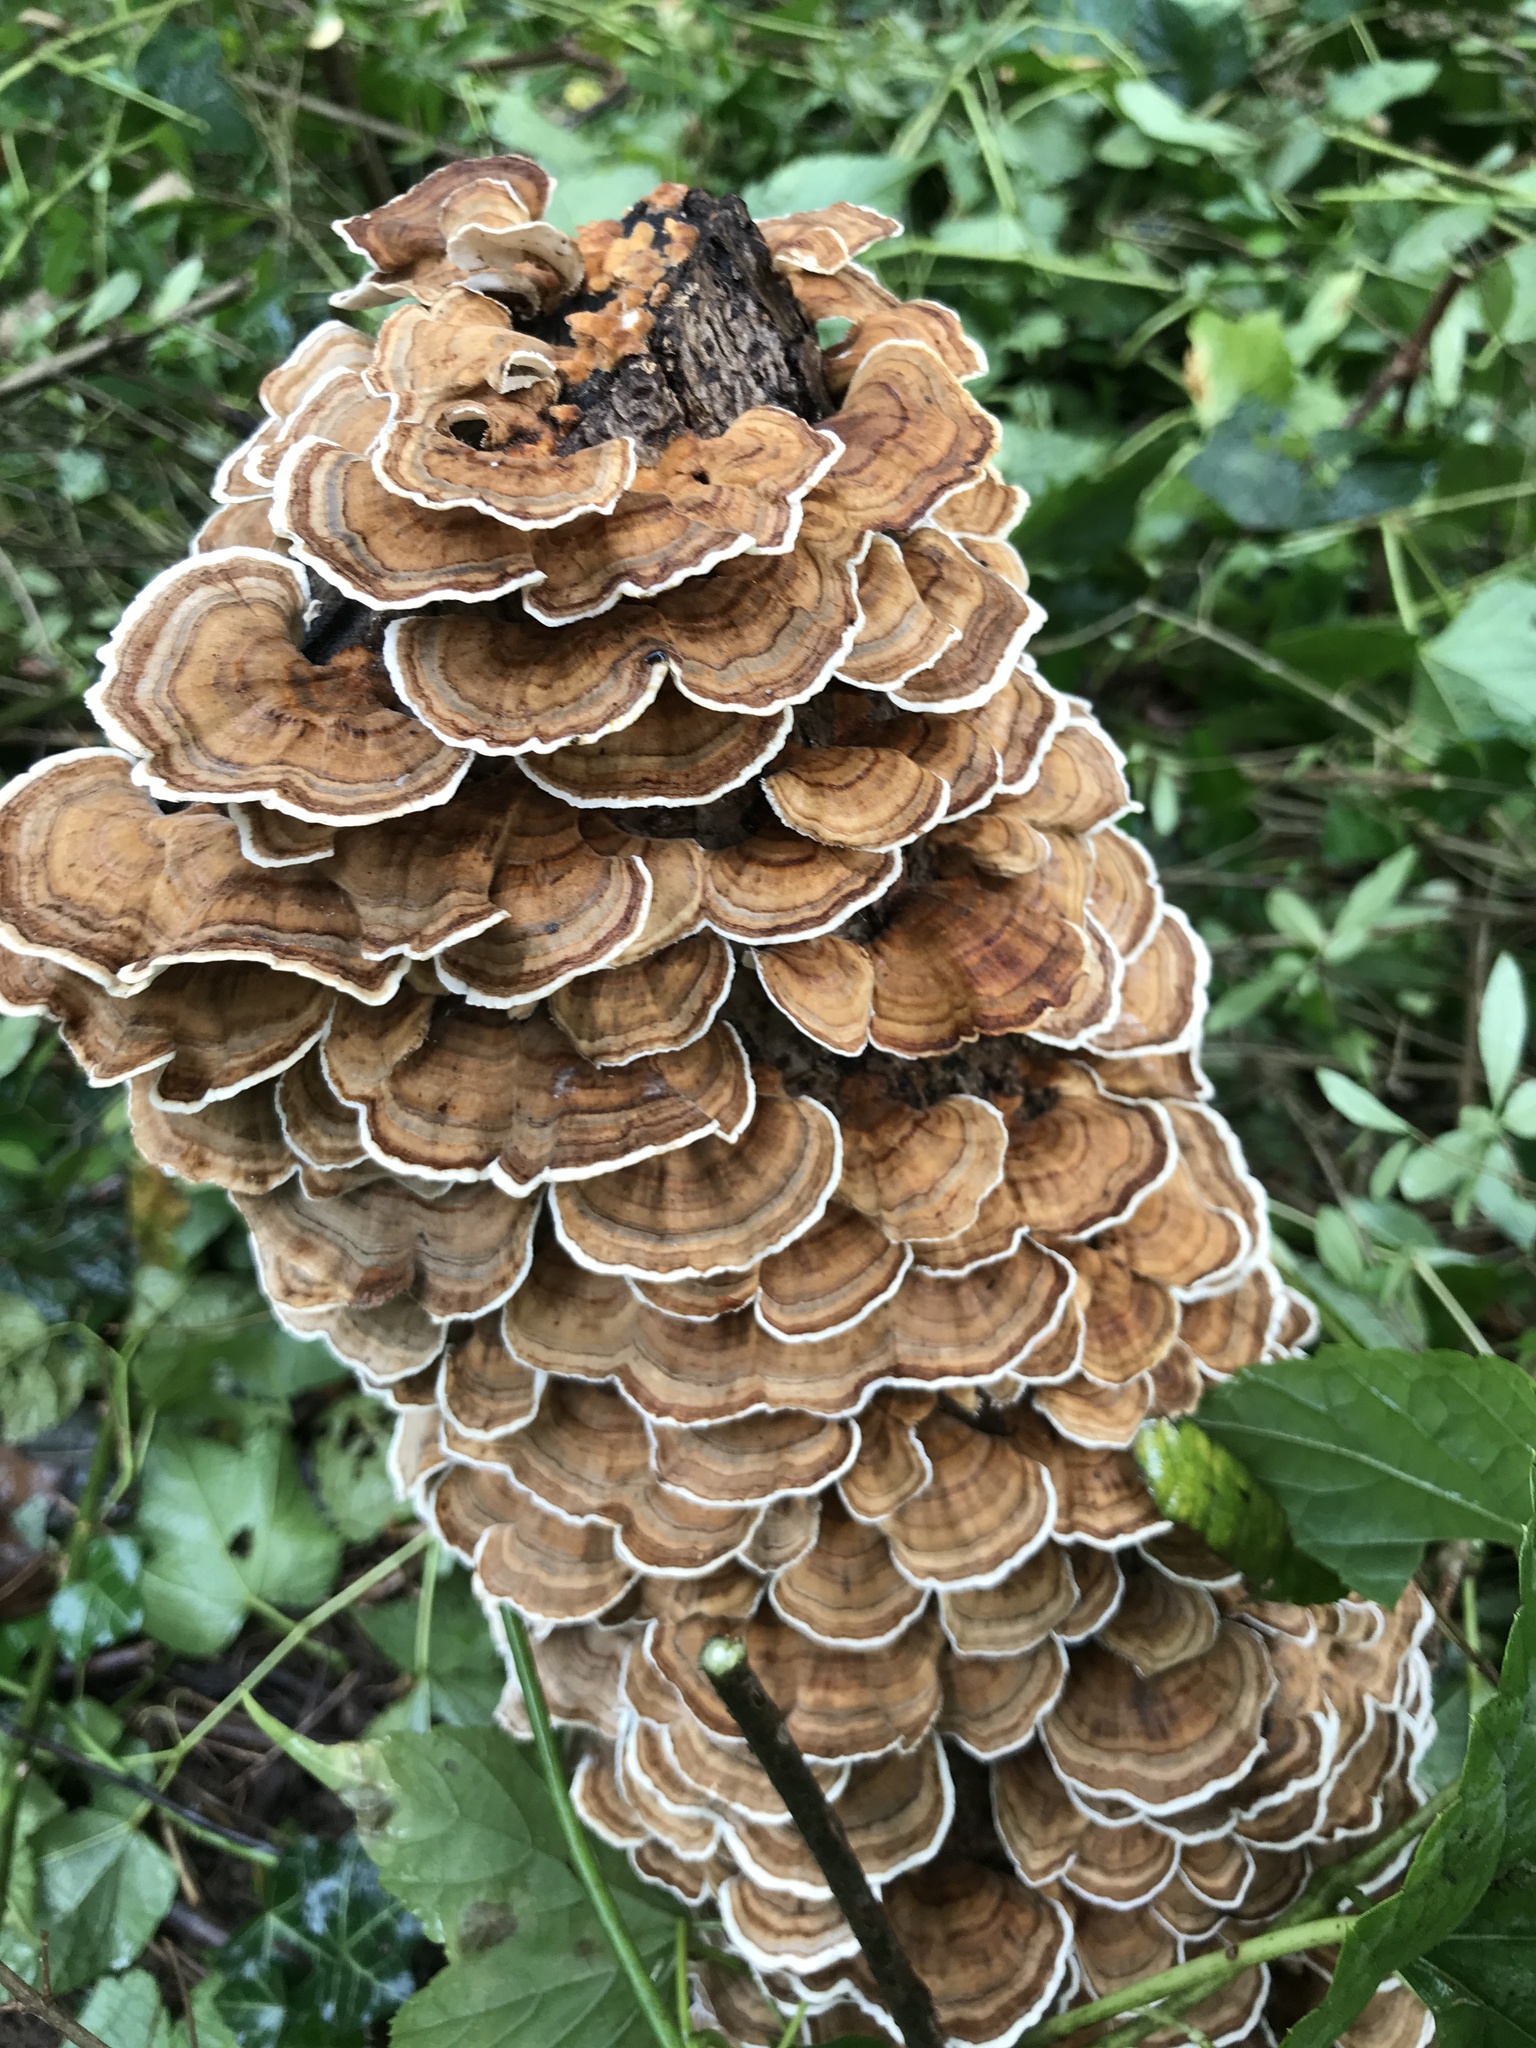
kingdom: Fungi
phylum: Basidiomycota
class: Agaricomycetes
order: Polyporales
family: Polyporaceae
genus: Trametes
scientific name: Trametes versicolor
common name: Turkeytail
